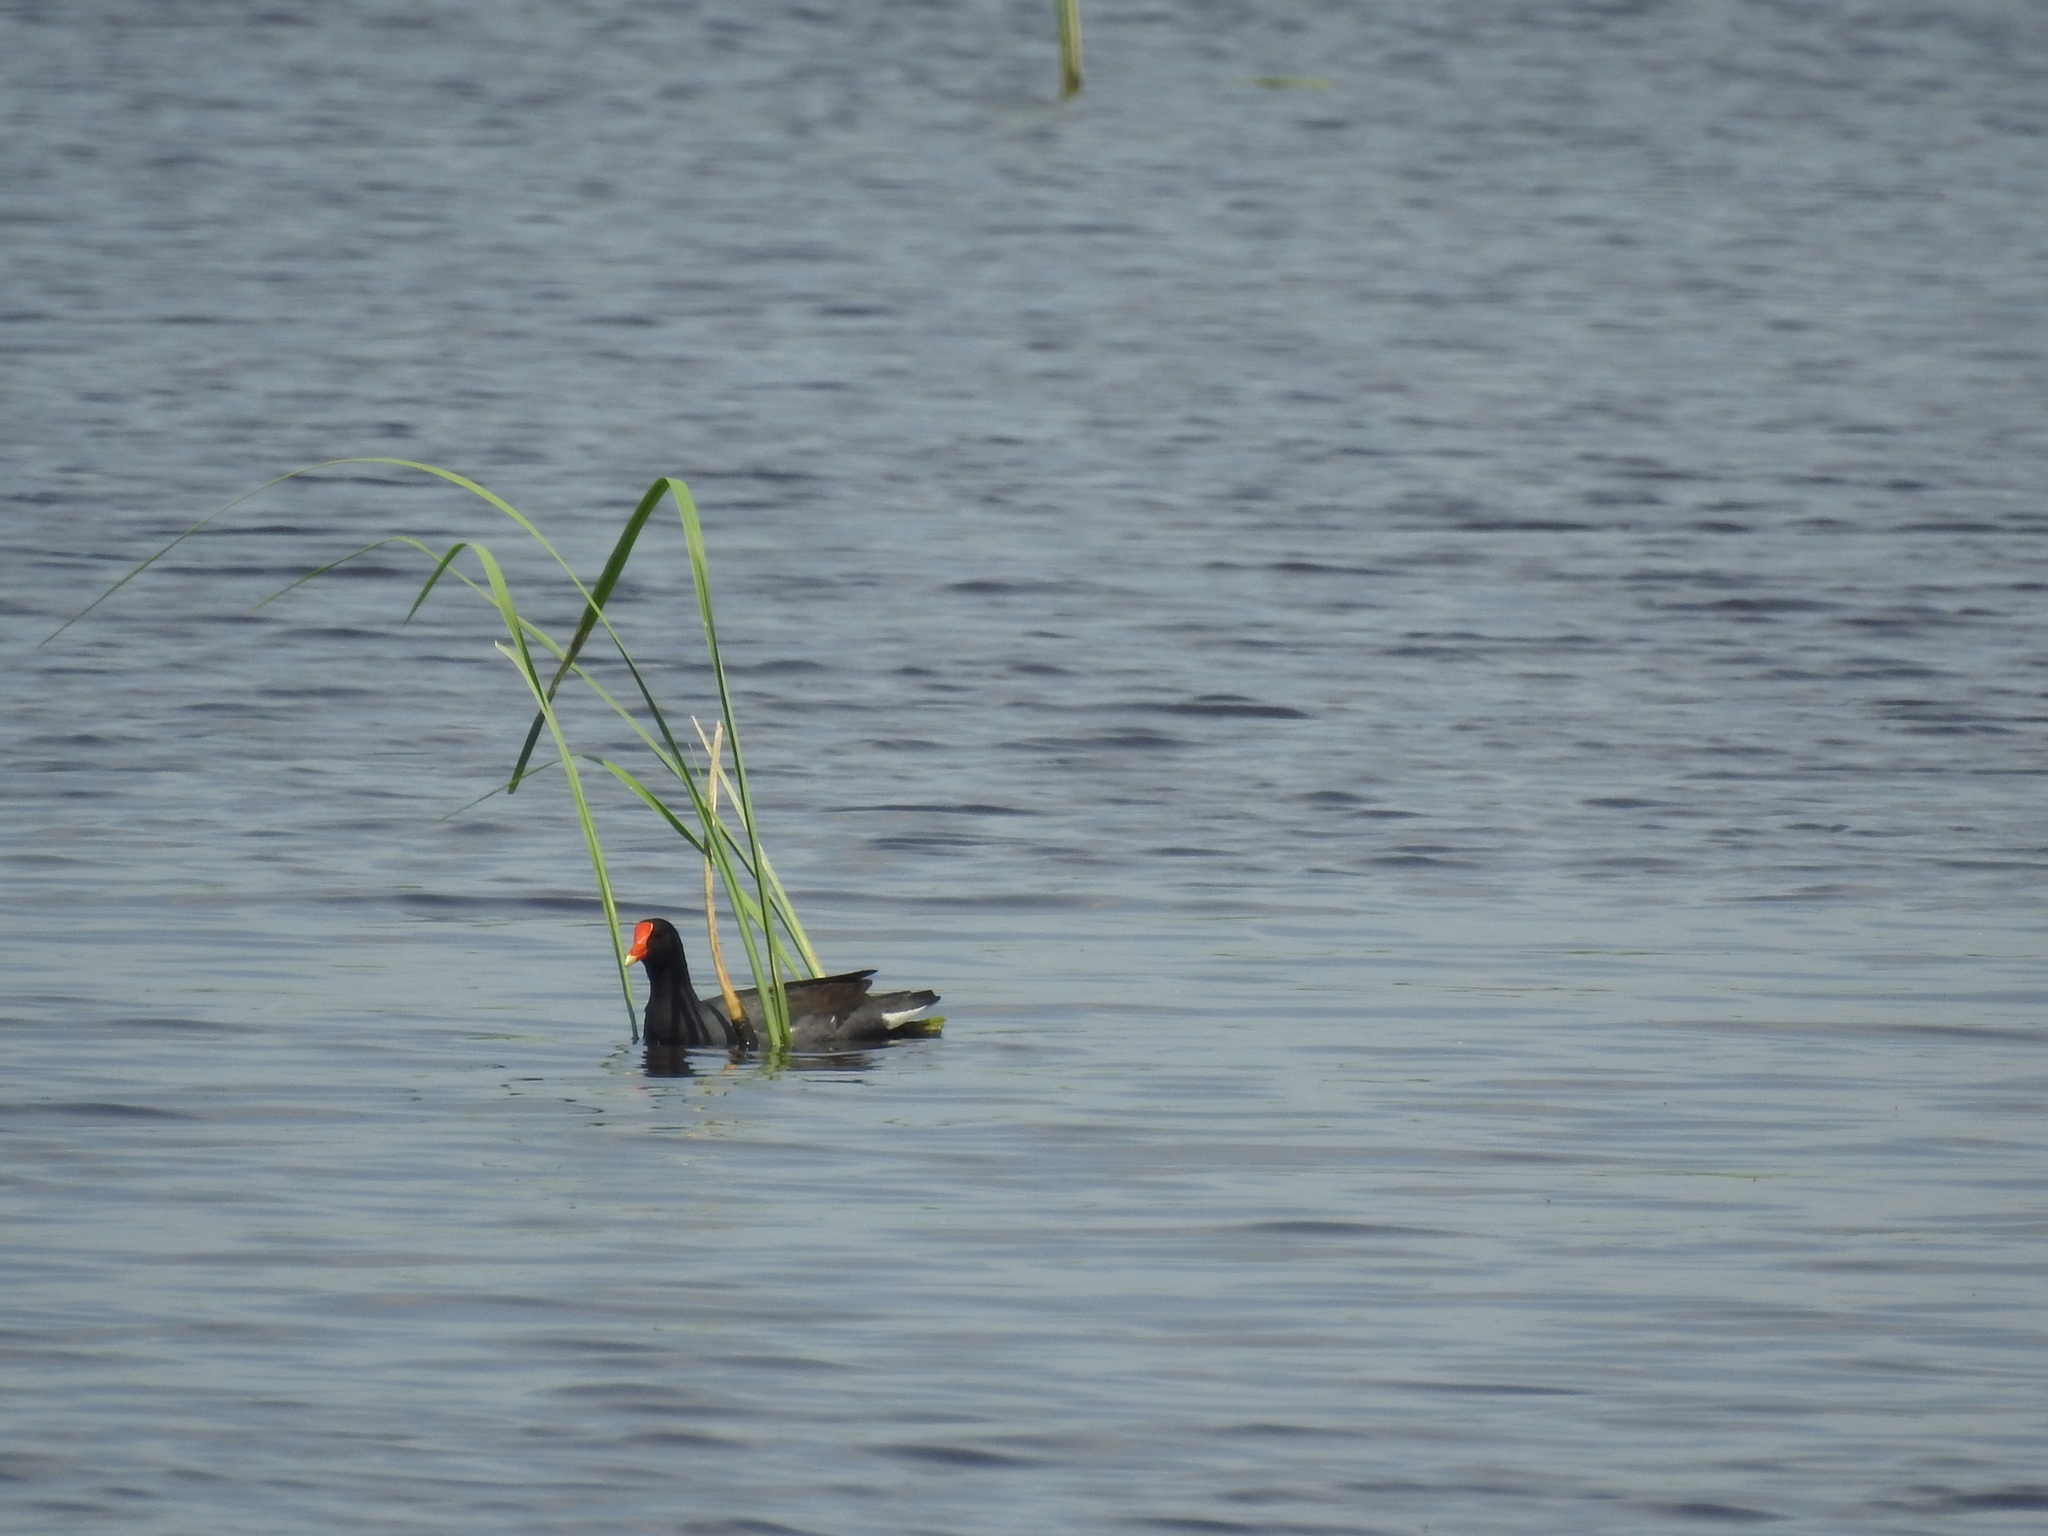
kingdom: Animalia
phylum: Chordata
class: Aves
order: Gruiformes
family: Rallidae
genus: Gallinula
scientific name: Gallinula chloropus
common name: Common moorhen
